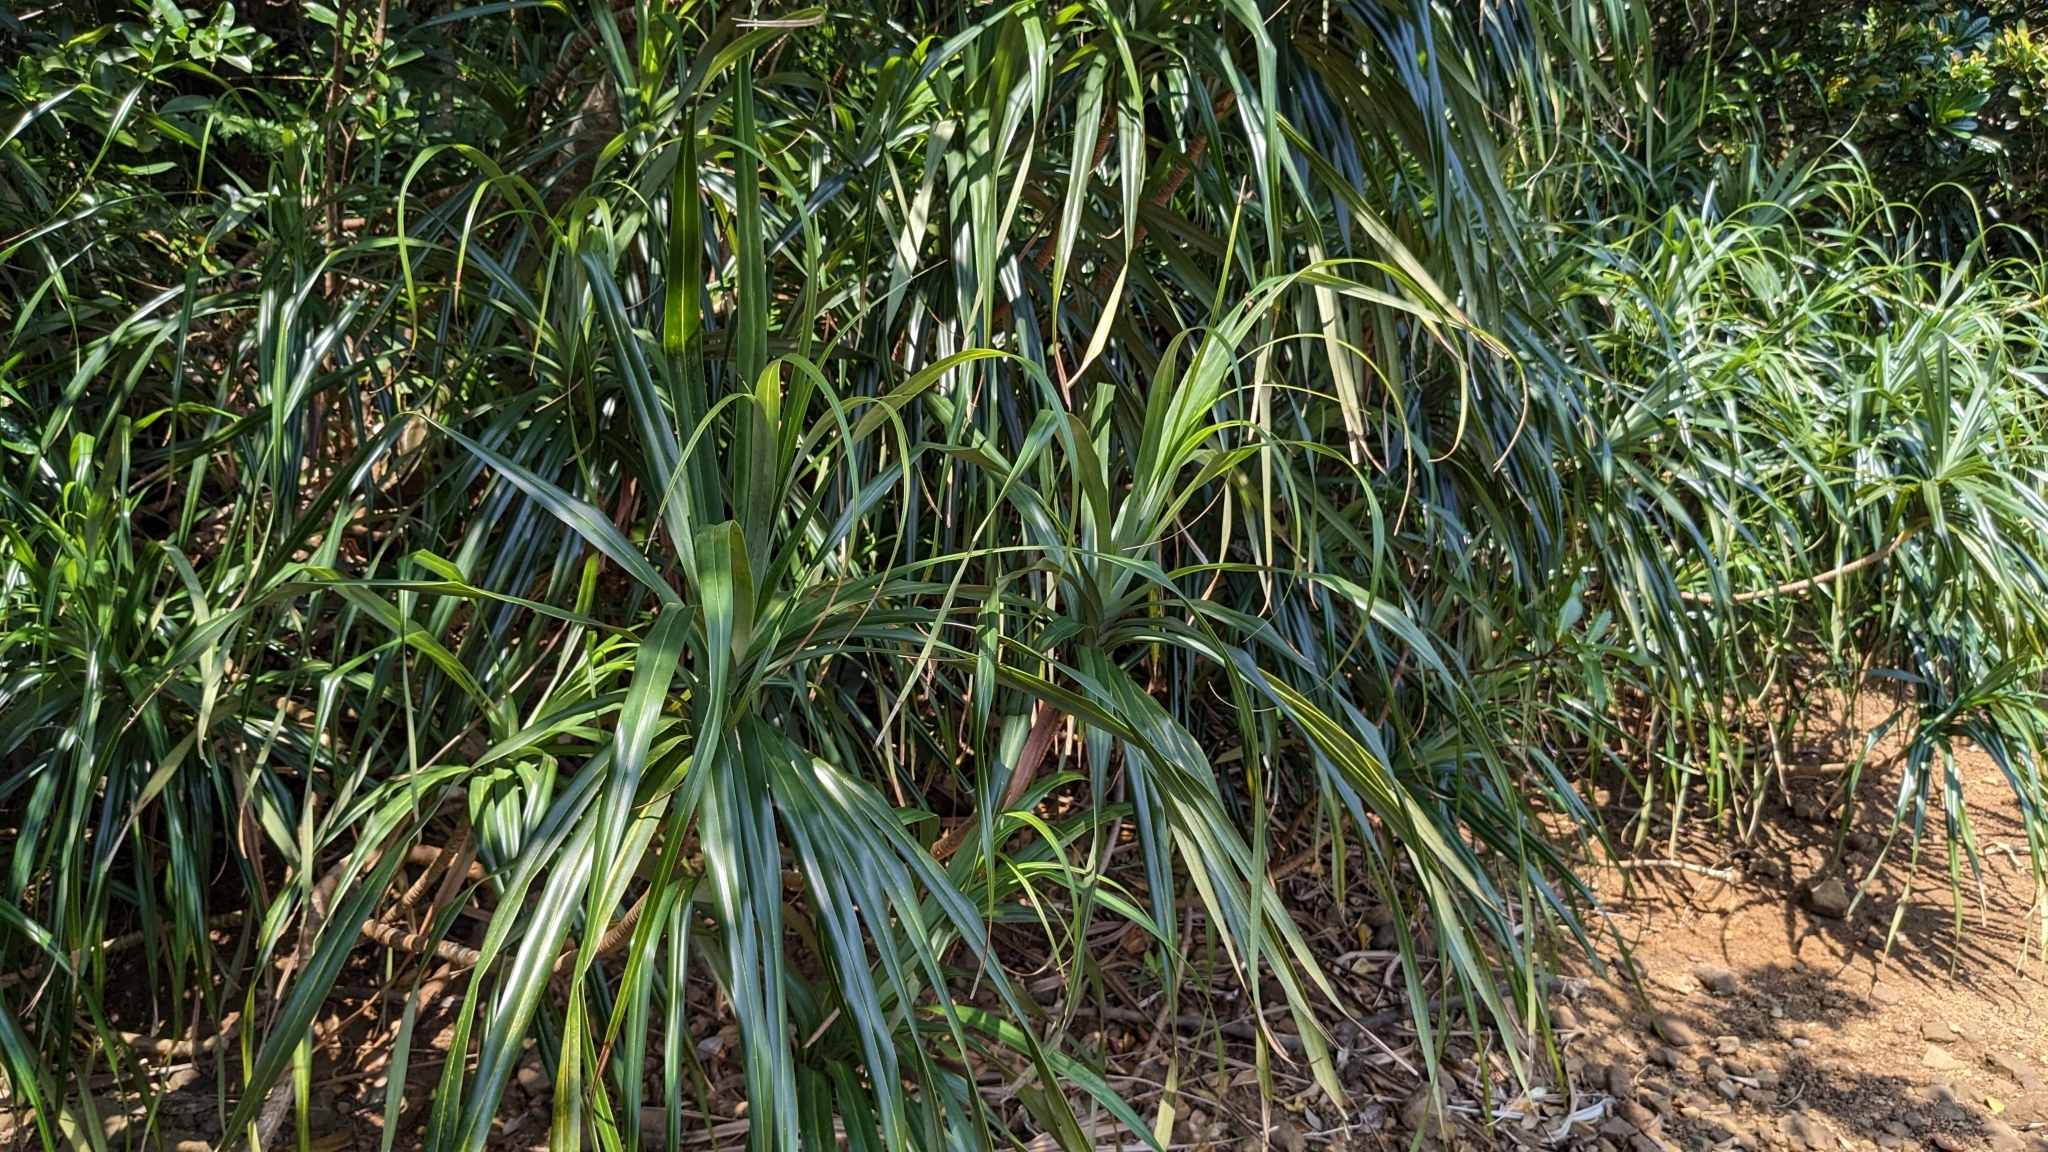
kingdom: Plantae
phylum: Tracheophyta
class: Liliopsida
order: Pandanales
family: Pandanaceae
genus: Freycinetia
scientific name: Freycinetia formosana
